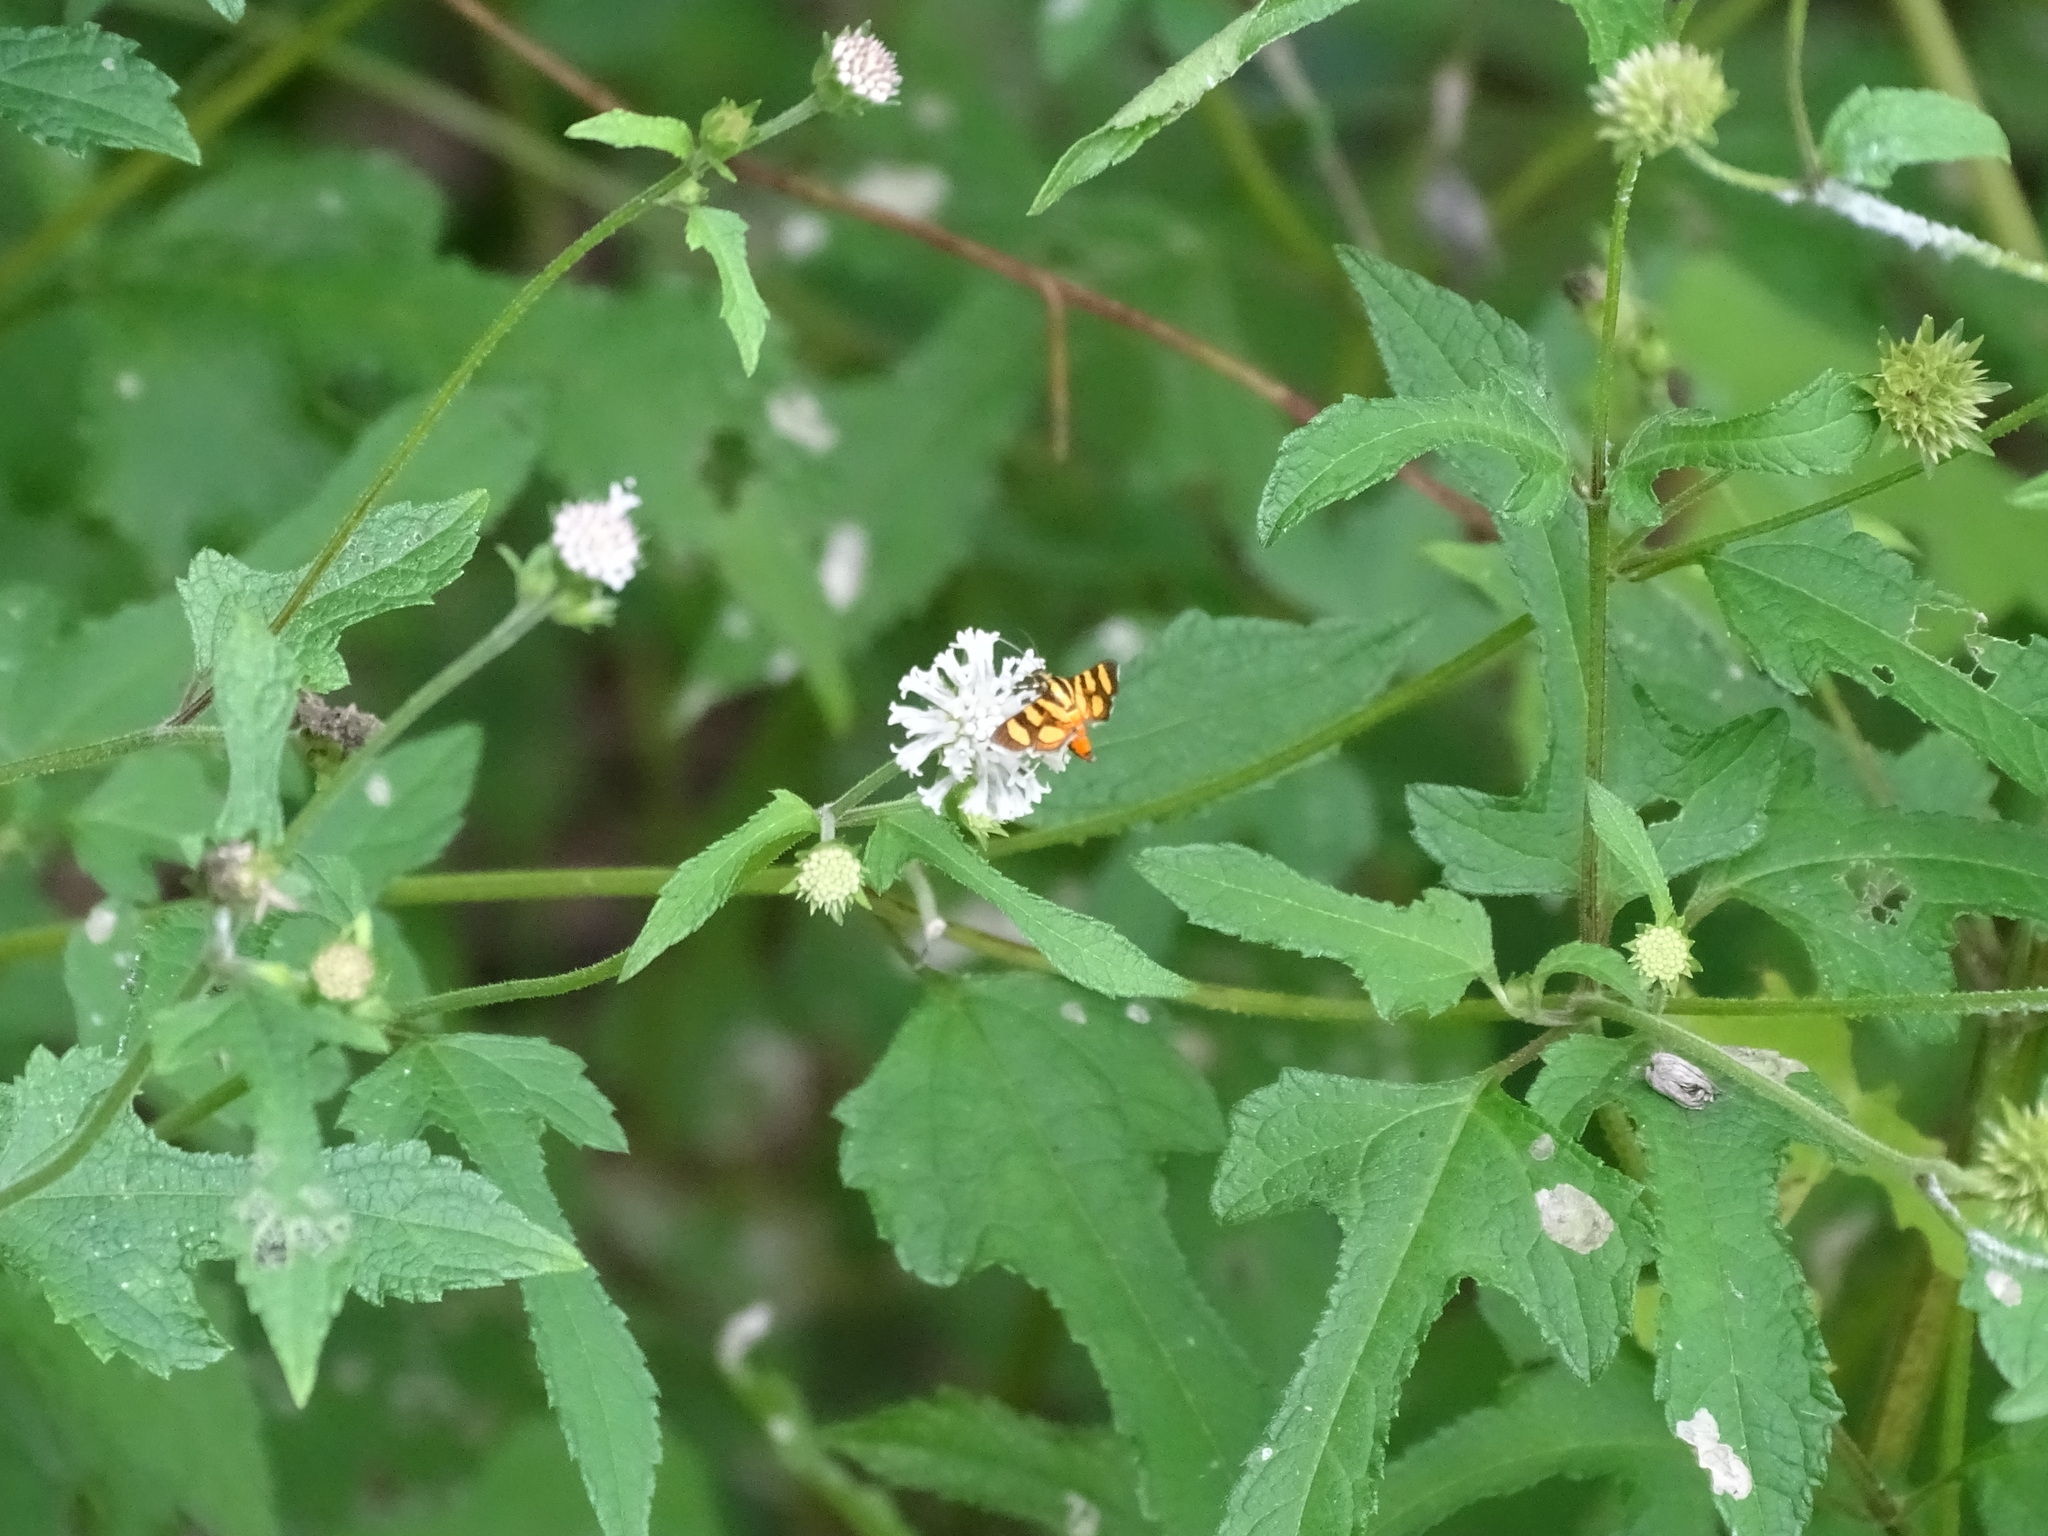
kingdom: Animalia
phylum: Arthropoda
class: Insecta
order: Lepidoptera
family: Crambidae
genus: Syngamia
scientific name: Syngamia florella
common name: Orange-spotted flower moth
